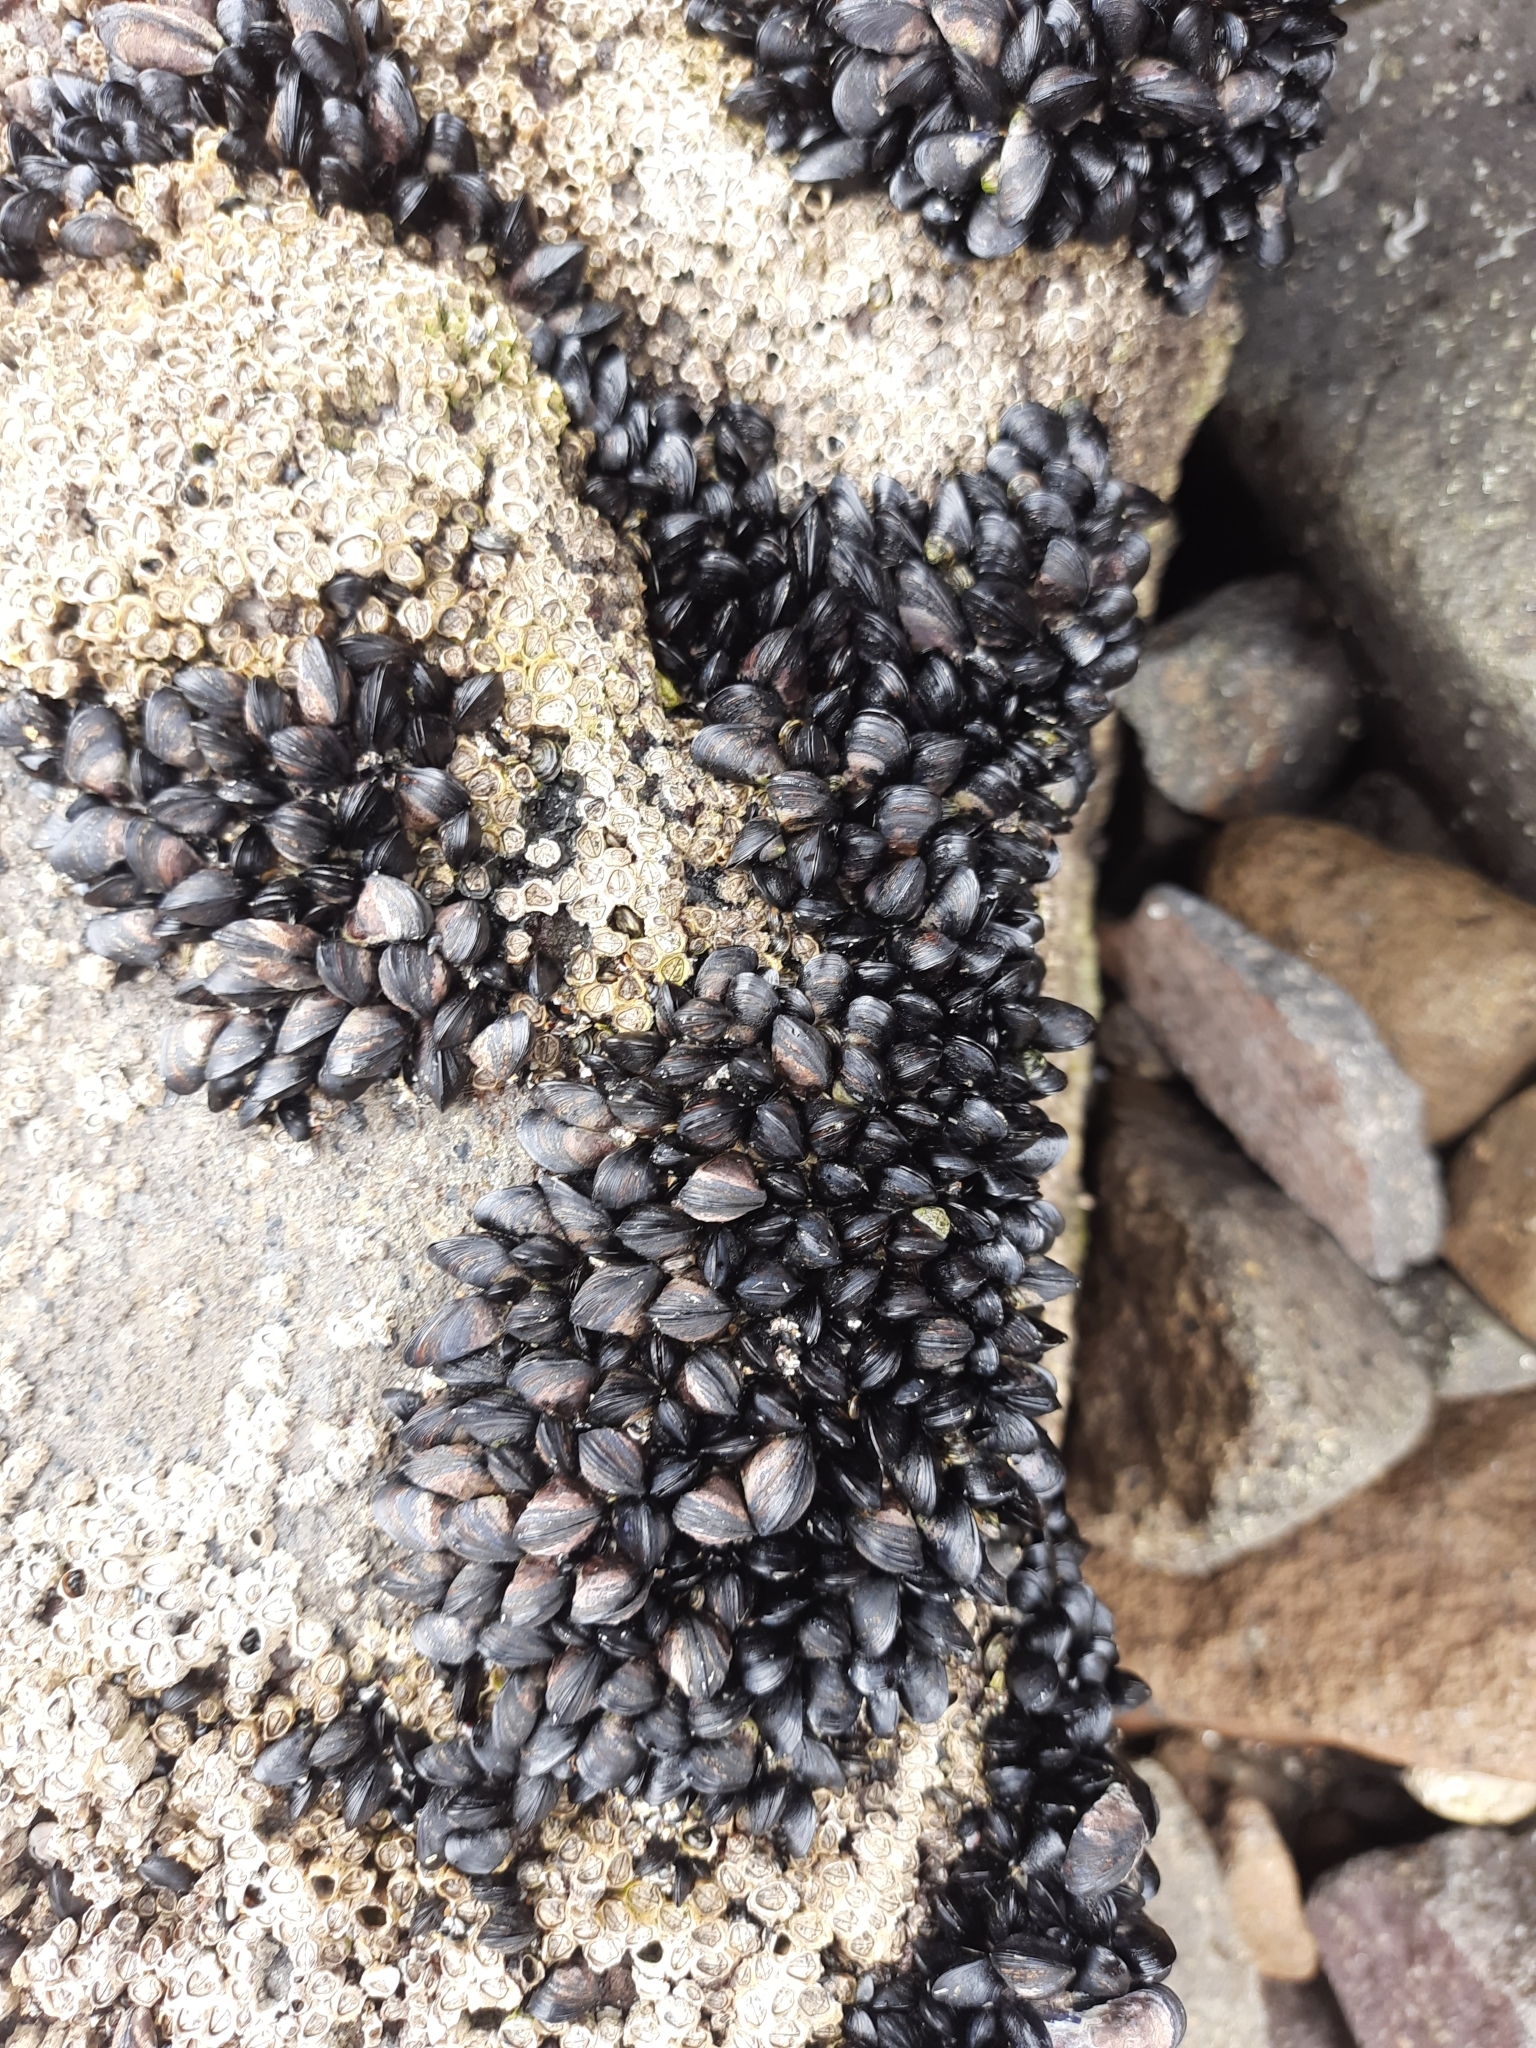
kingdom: Animalia
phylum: Mollusca
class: Bivalvia
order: Mytilida
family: Mytilidae
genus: Xenostrobus
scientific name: Xenostrobus neozelanicus
